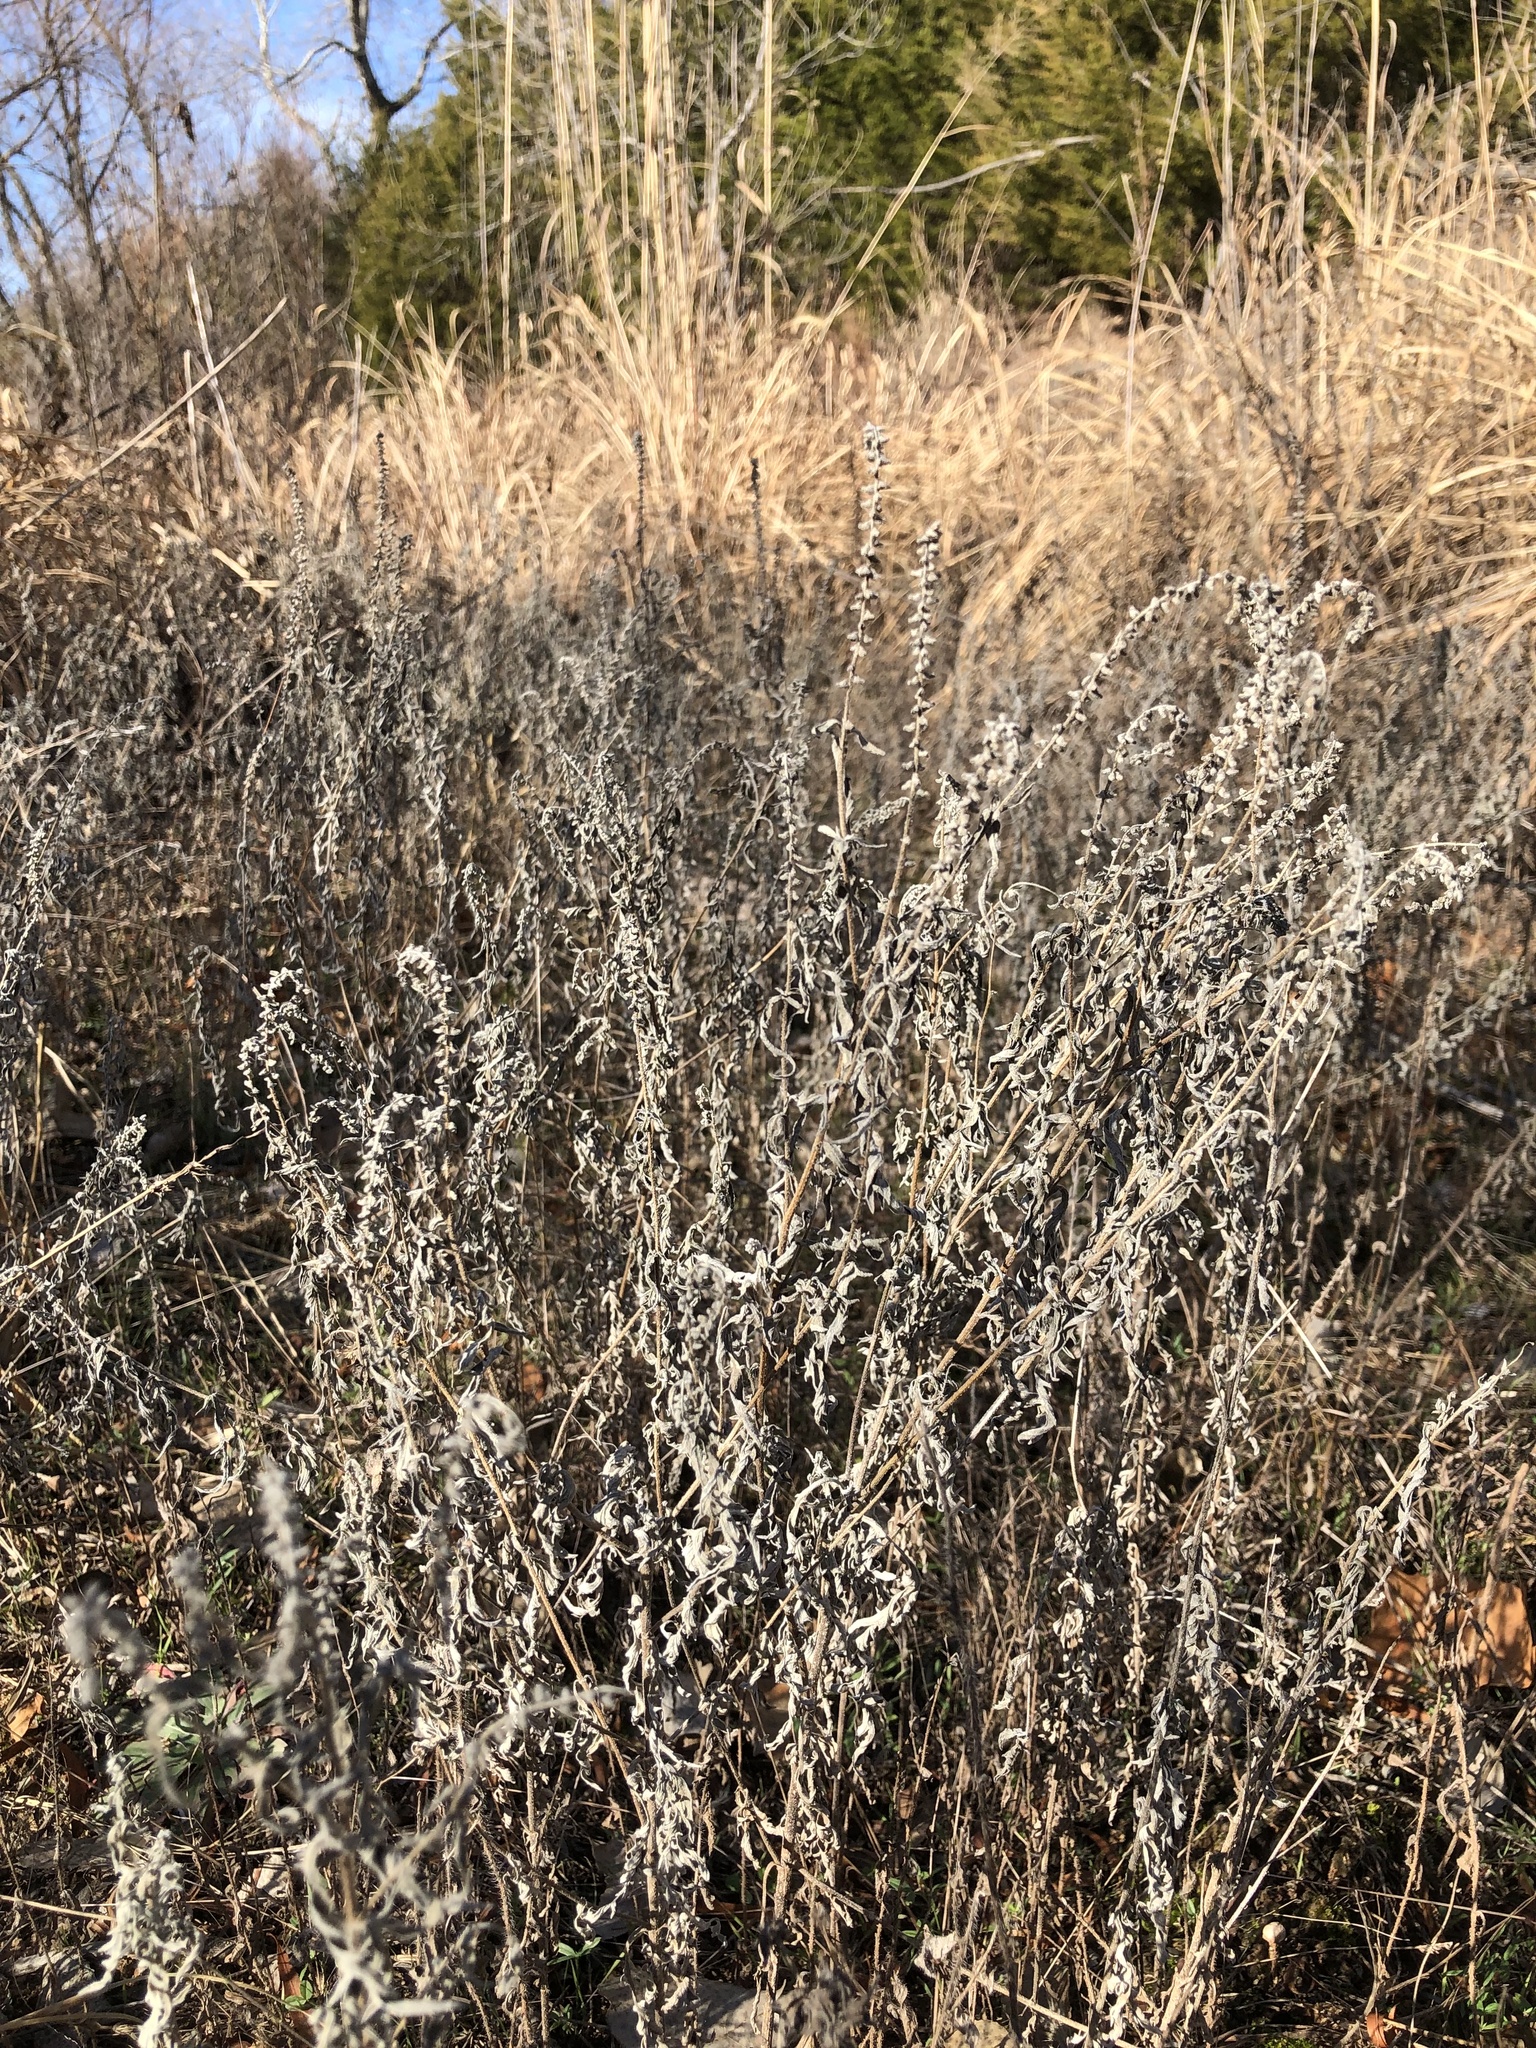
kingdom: Plantae
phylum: Tracheophyta
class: Magnoliopsida
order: Asterales
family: Asteraceae
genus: Artemisia
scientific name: Artemisia ludoviciana
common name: Western mugwort
